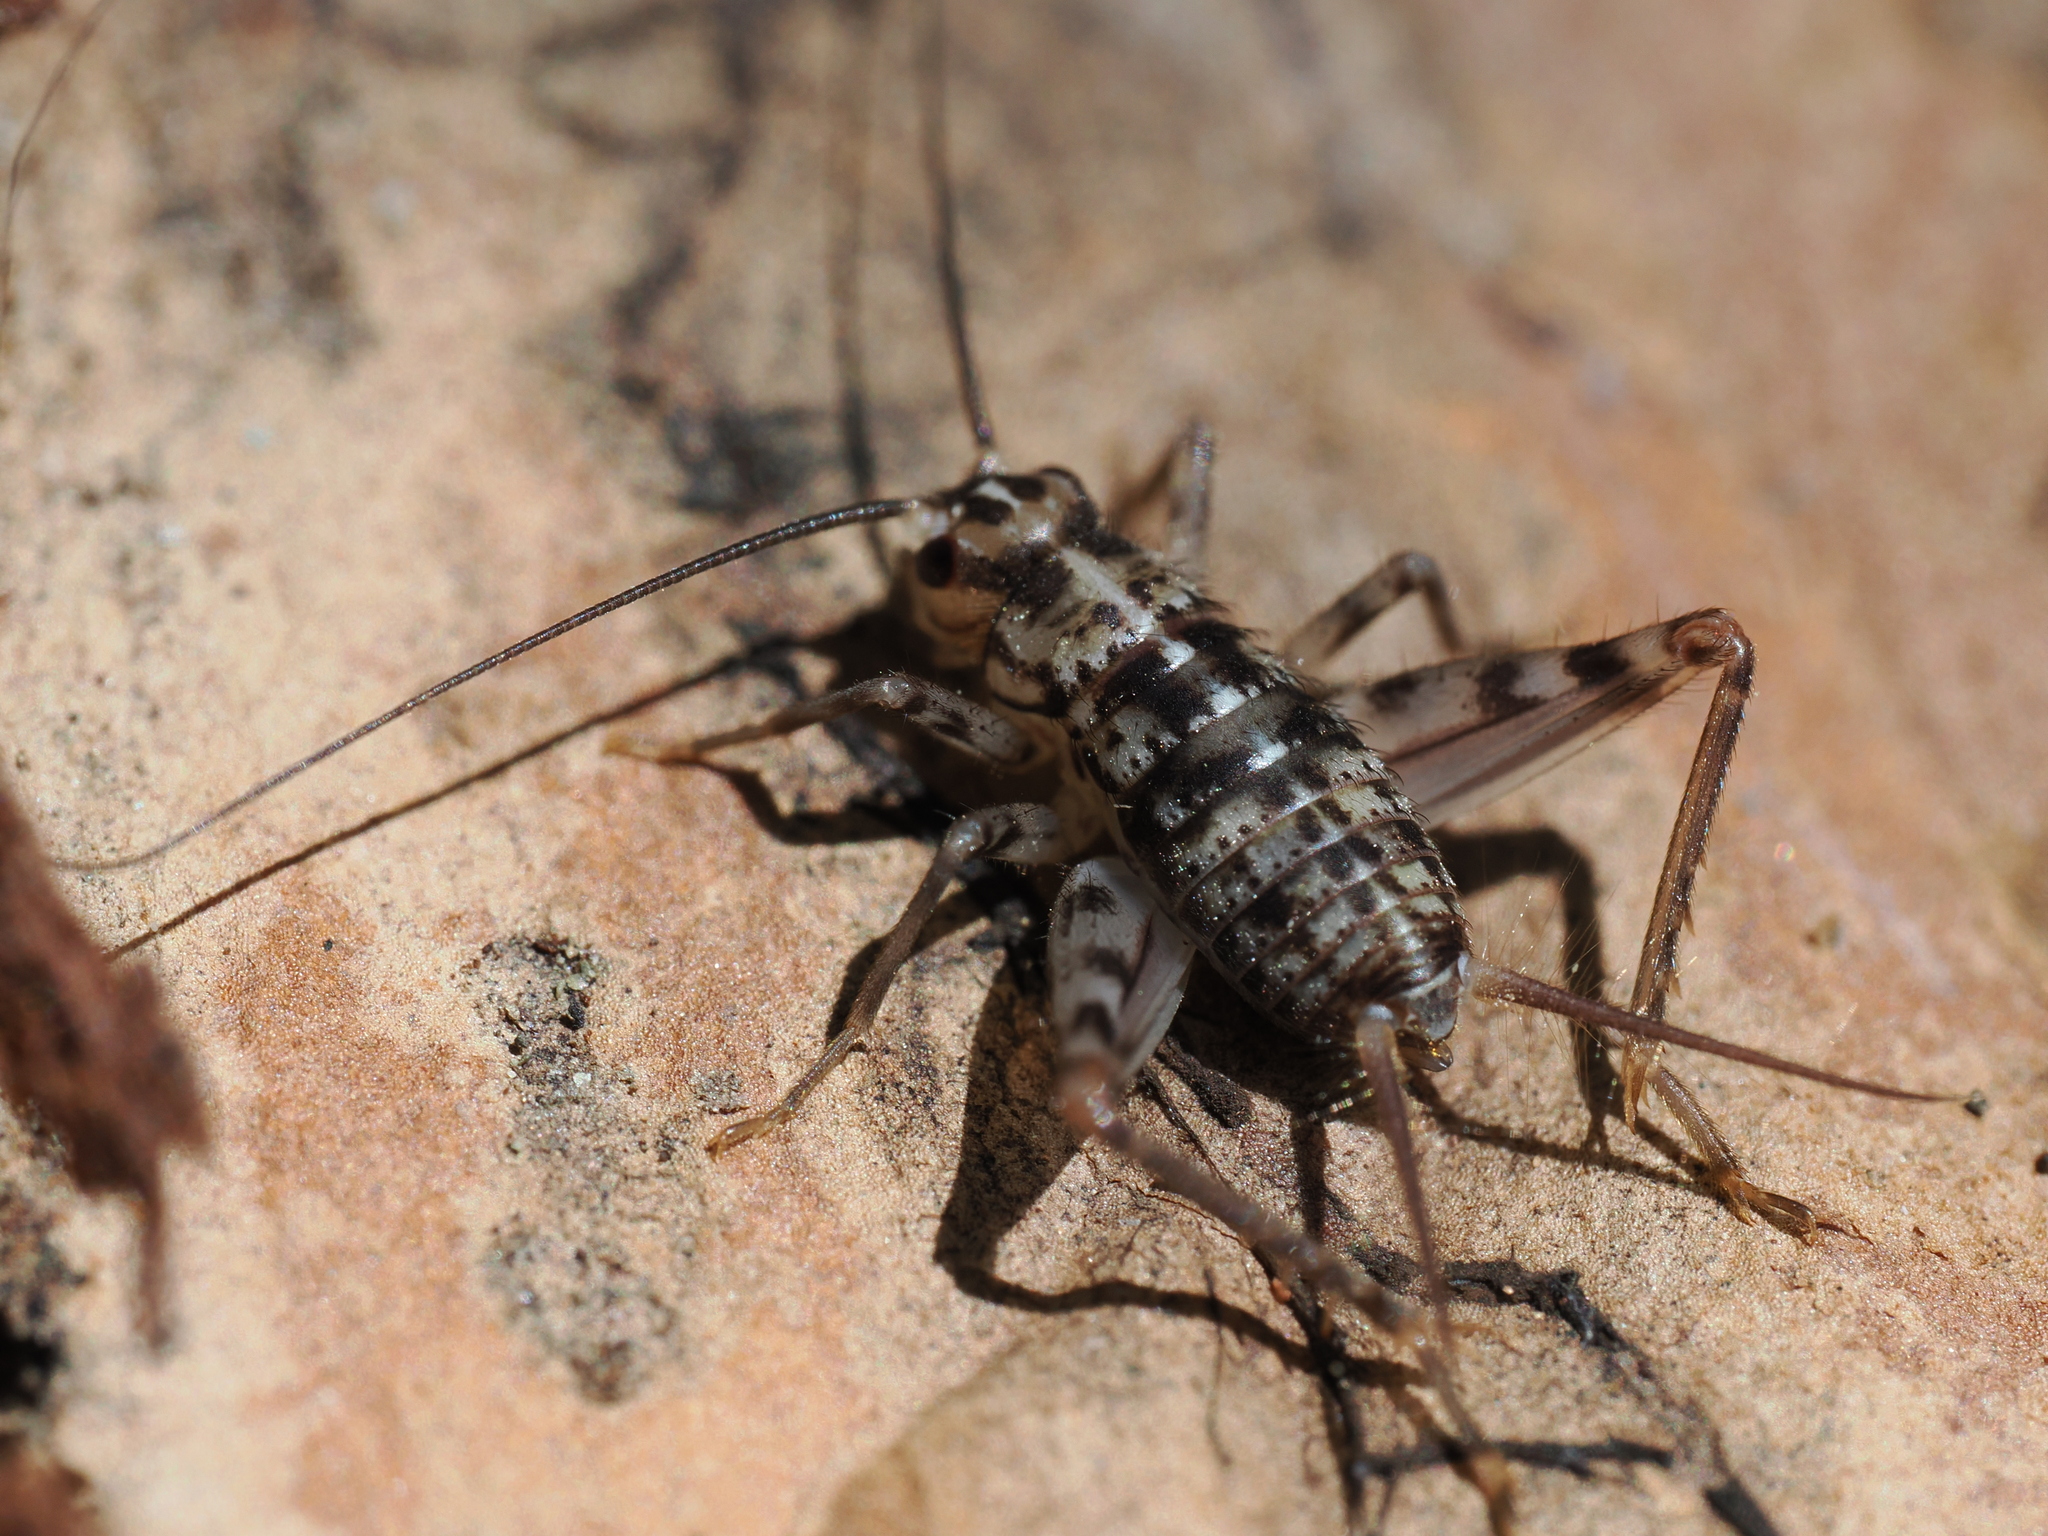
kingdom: Animalia
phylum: Arthropoda
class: Insecta
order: Orthoptera
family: Gryllidae
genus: Gryllomorpha
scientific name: Gryllomorpha dalmatina
